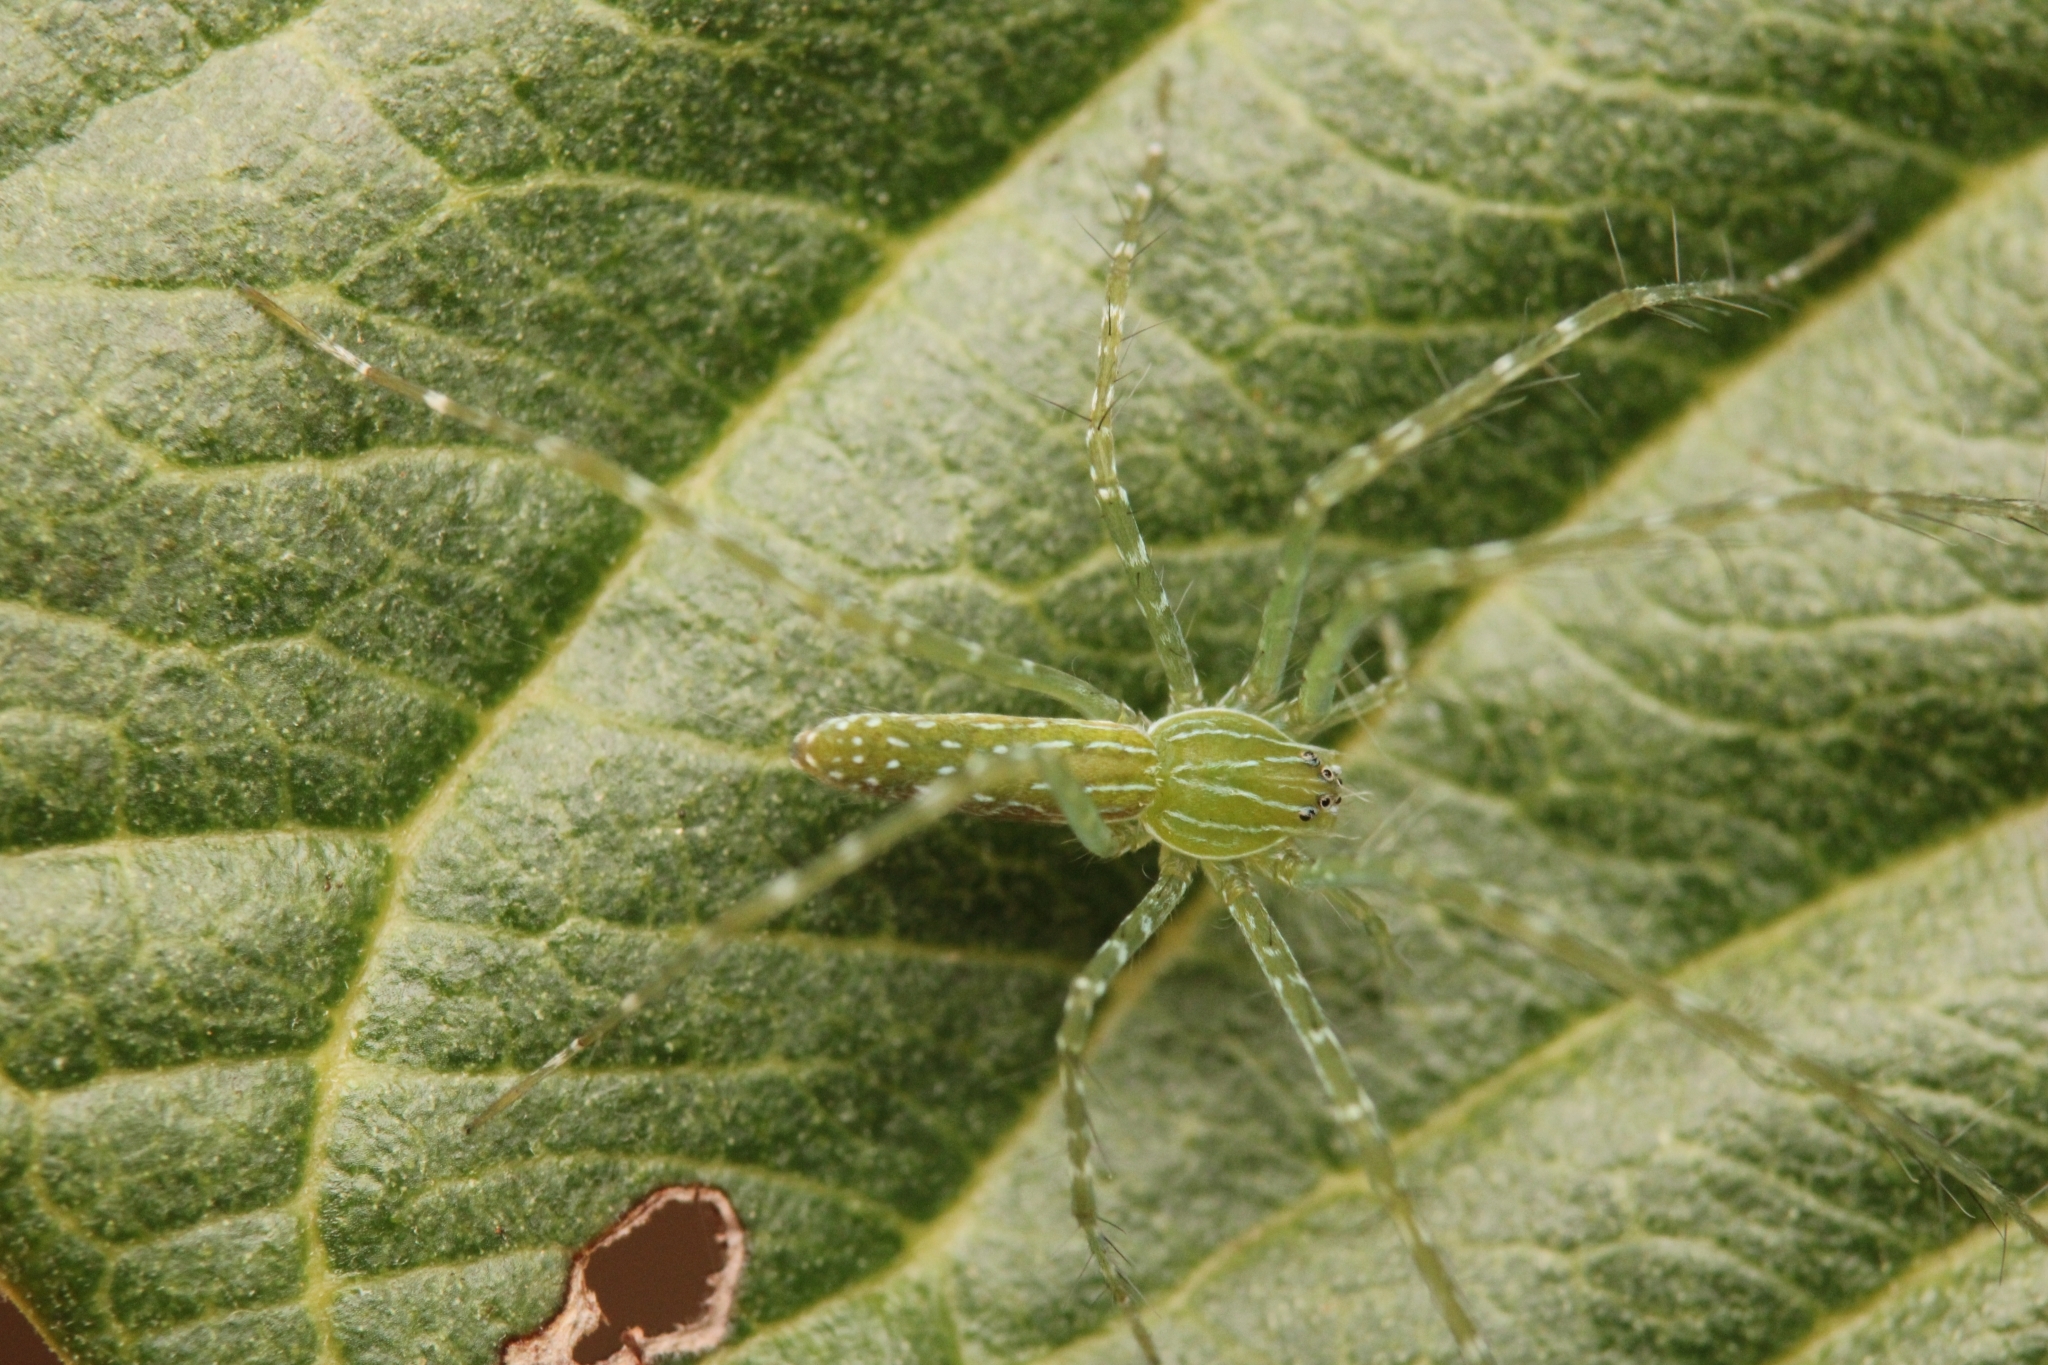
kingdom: Animalia
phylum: Arthropoda
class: Arachnida
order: Araneae
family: Pisauridae
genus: Hygropoda
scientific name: Hygropoda tangana
